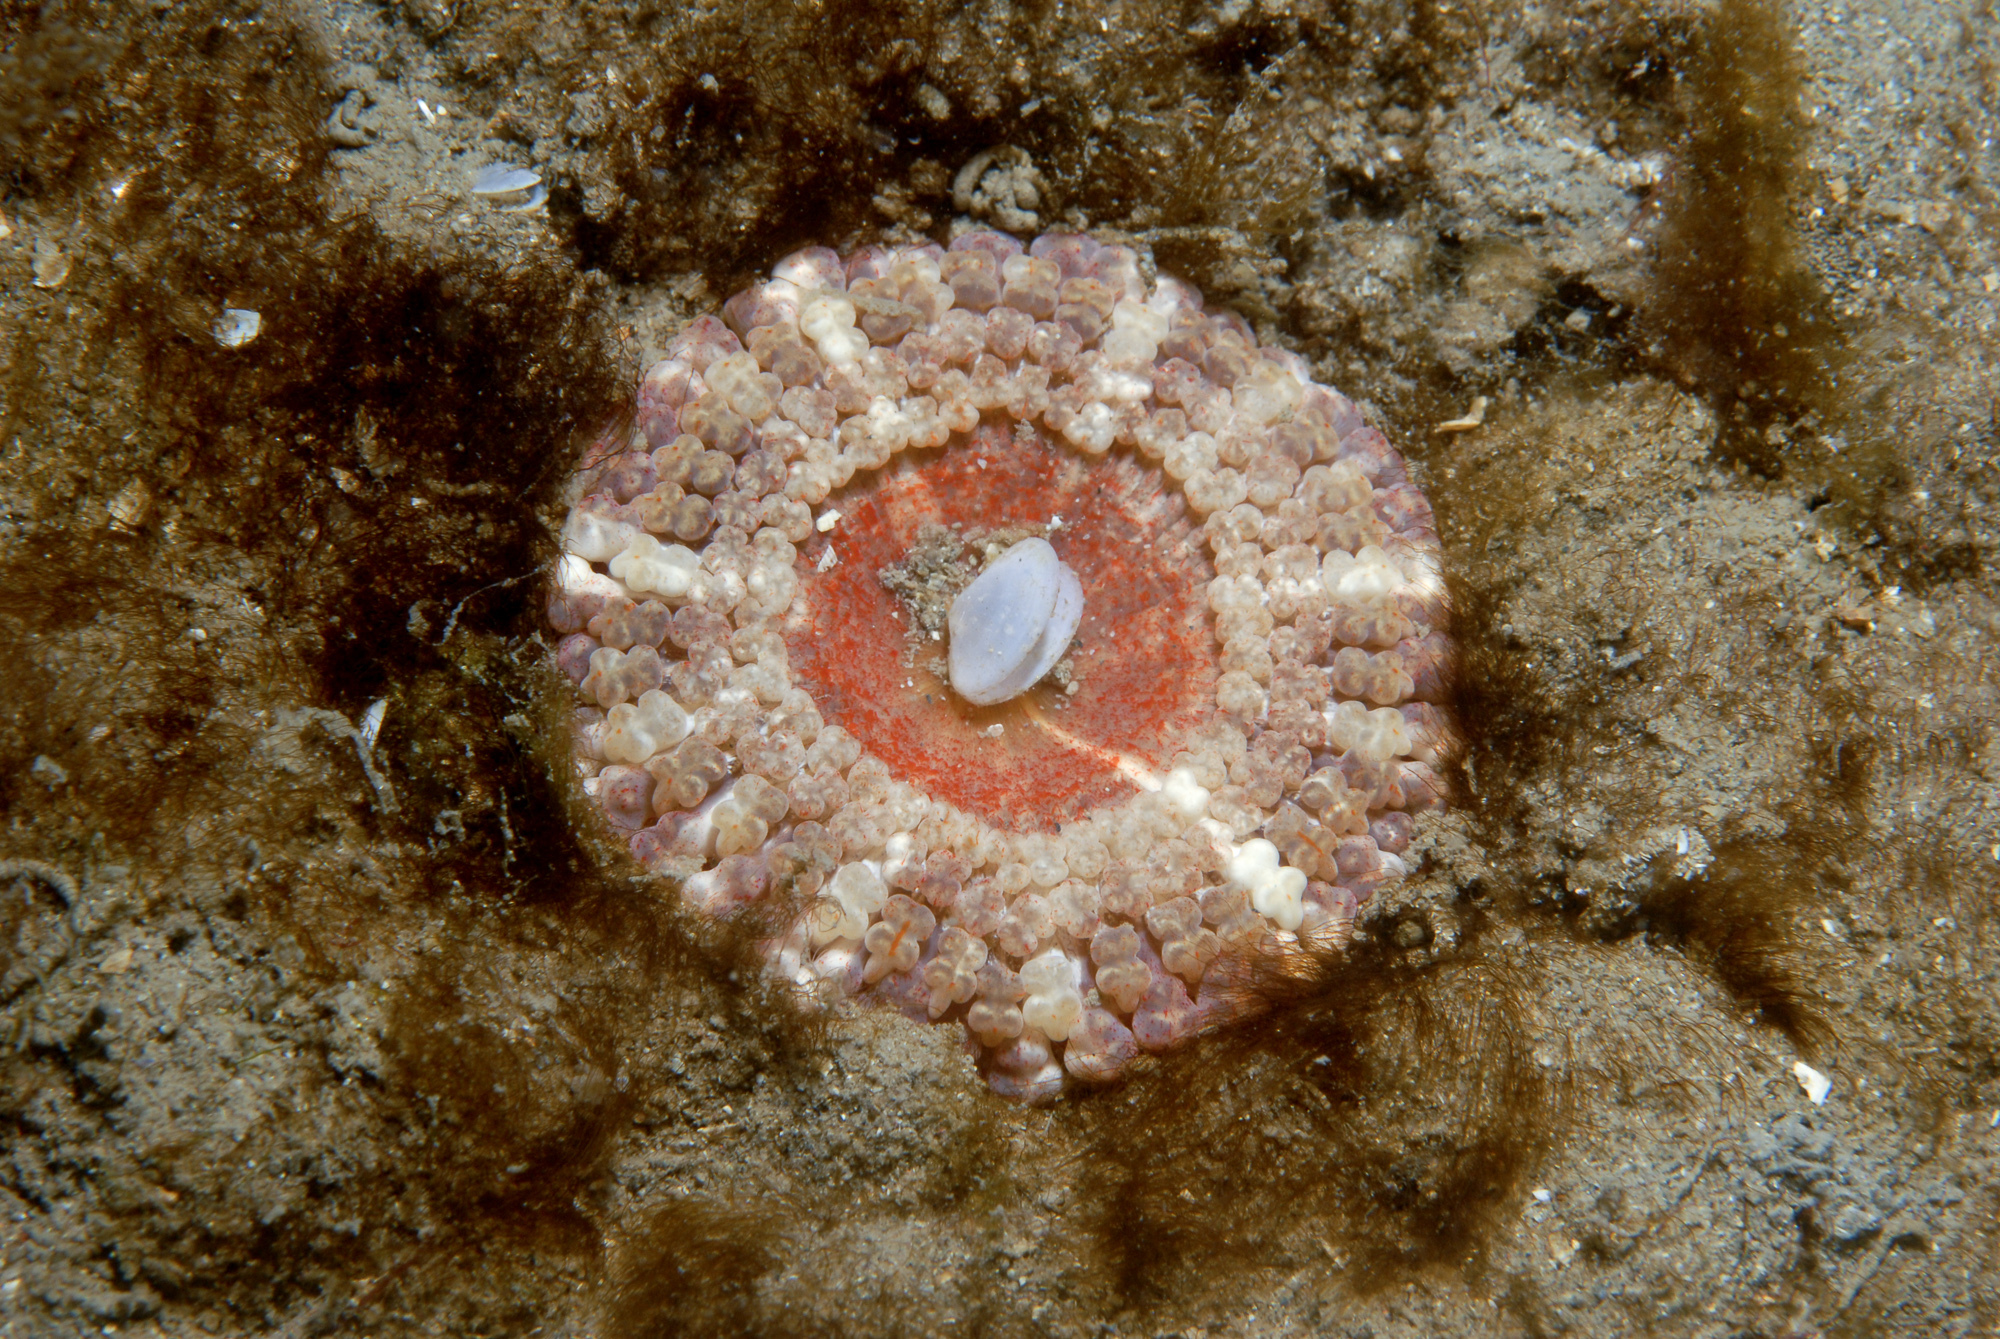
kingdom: Animalia
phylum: Cnidaria
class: Anthozoa
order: Actiniaria
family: Capneidae
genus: Capnea
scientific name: Capnea sanguinea
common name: Imperial anemone
